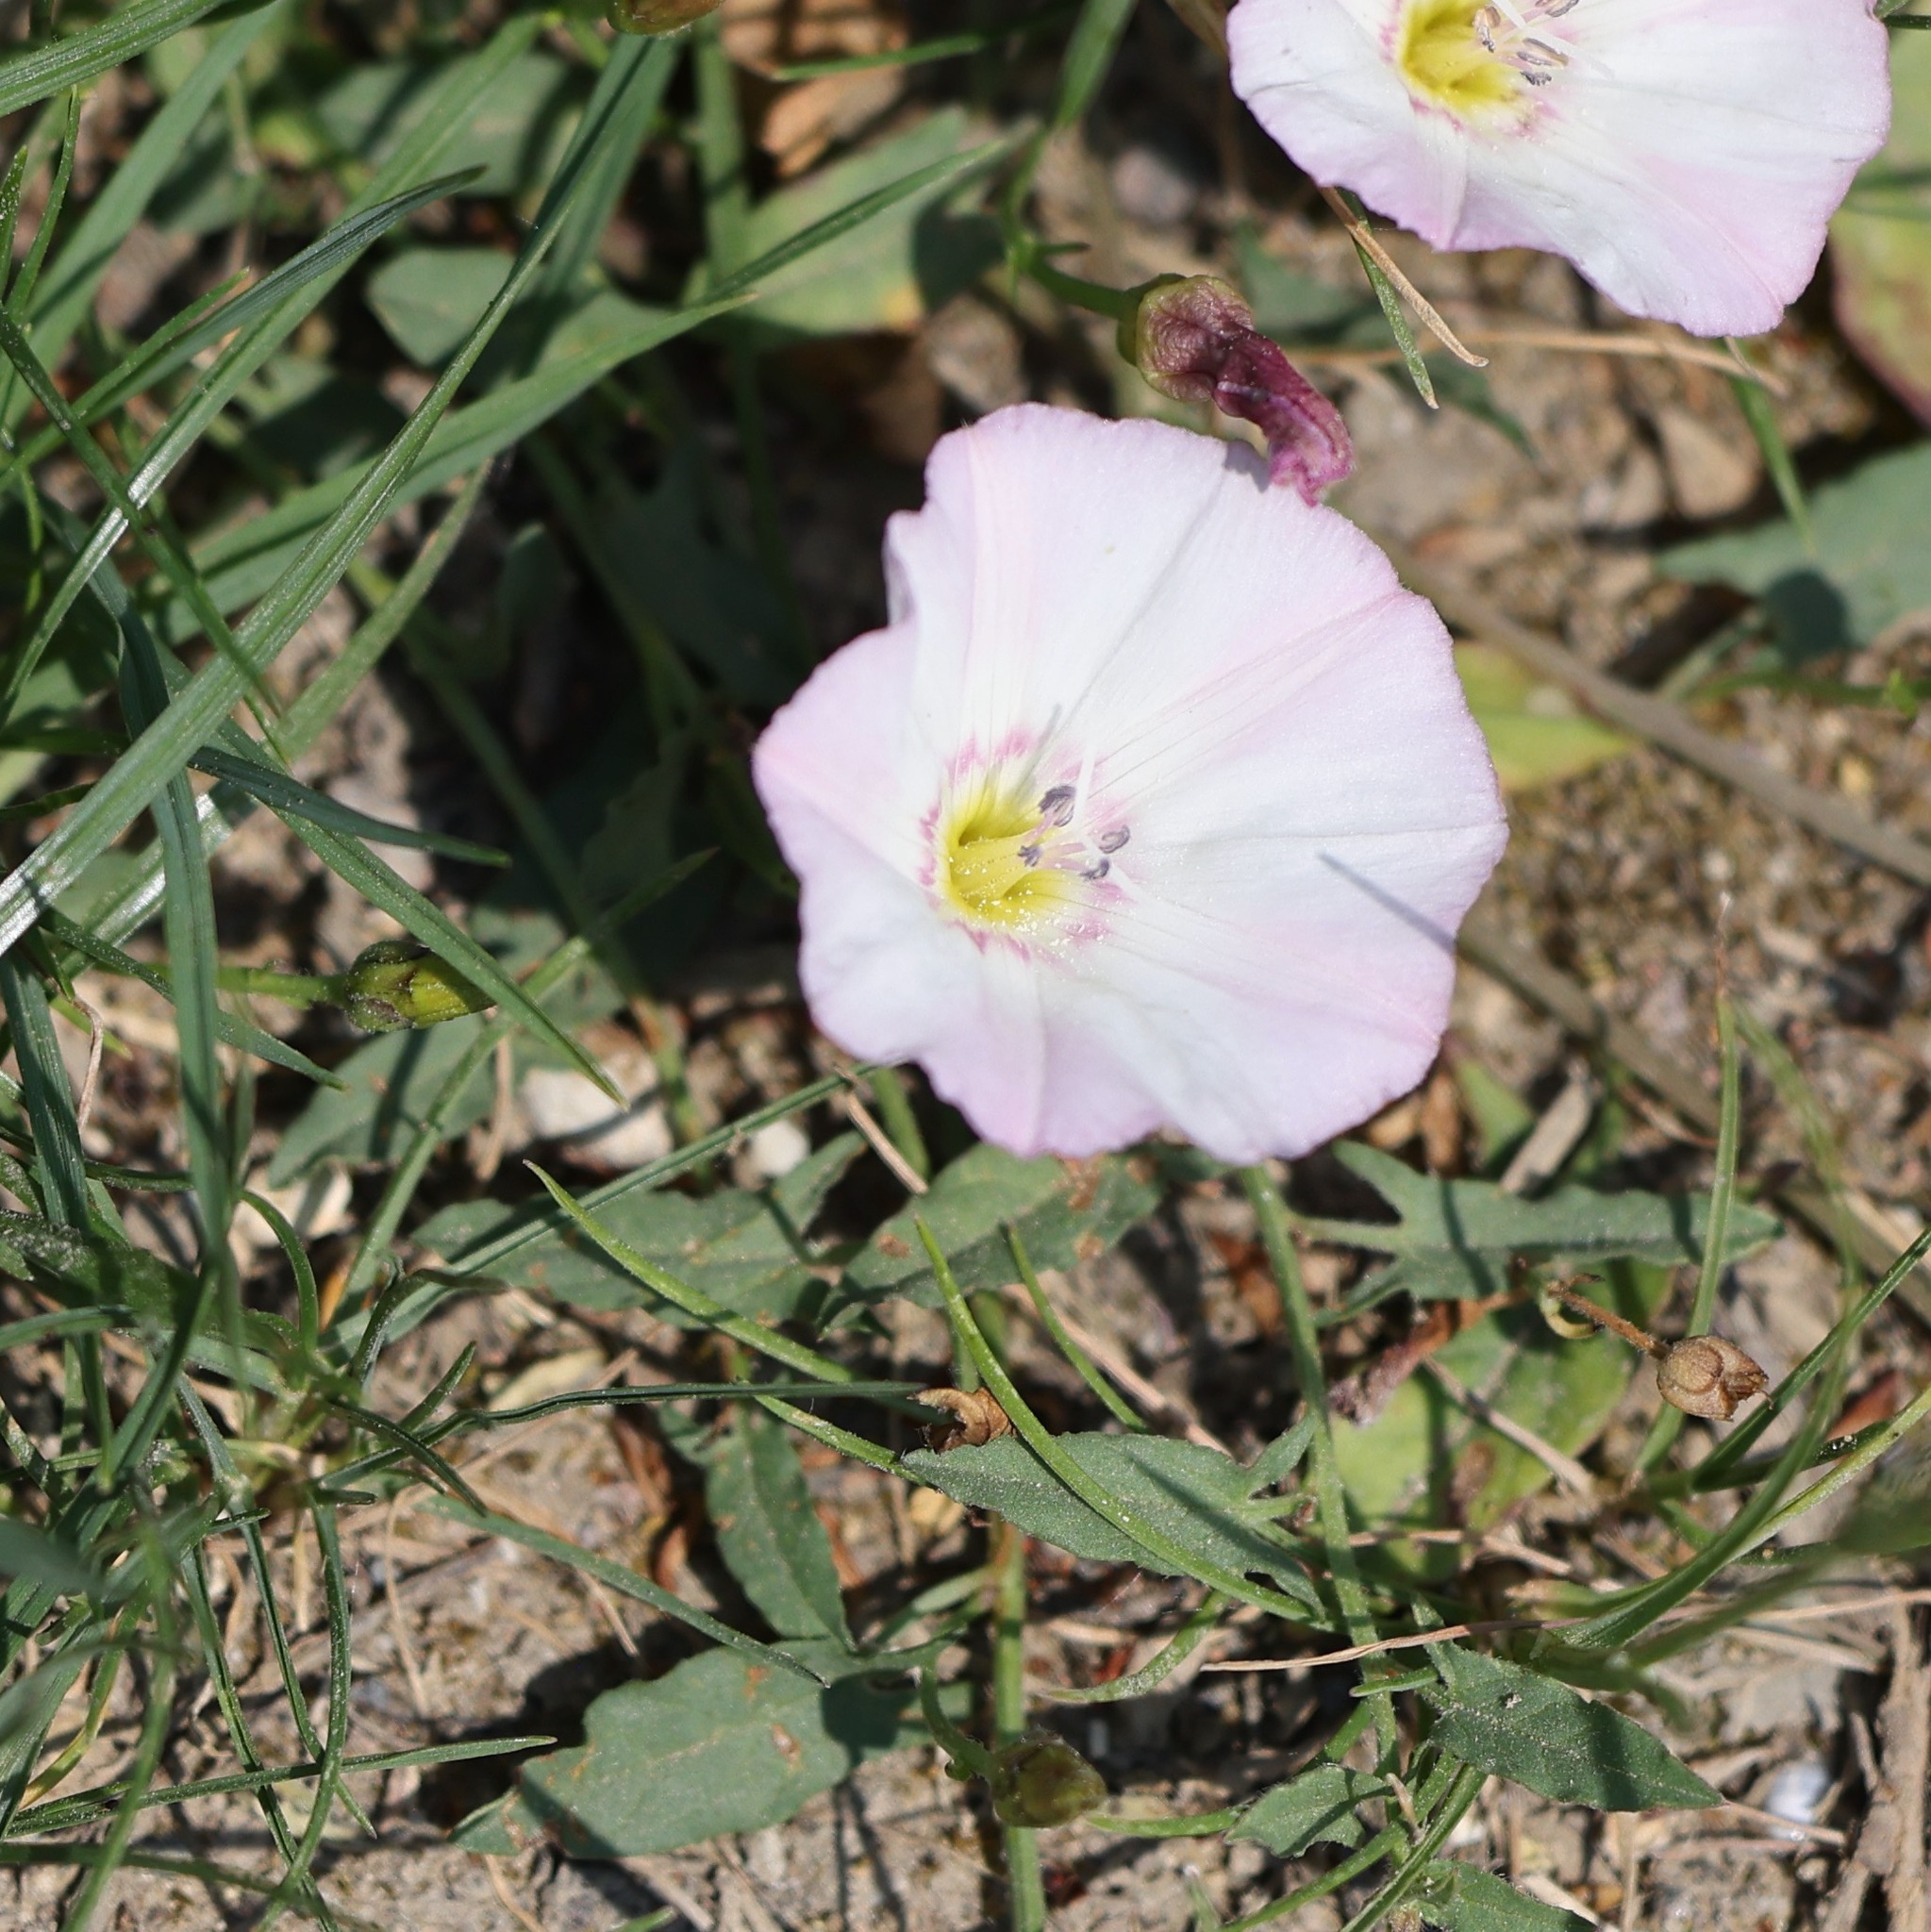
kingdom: Plantae
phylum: Tracheophyta
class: Magnoliopsida
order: Solanales
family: Convolvulaceae
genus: Convolvulus
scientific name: Convolvulus arvensis
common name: Field bindweed
